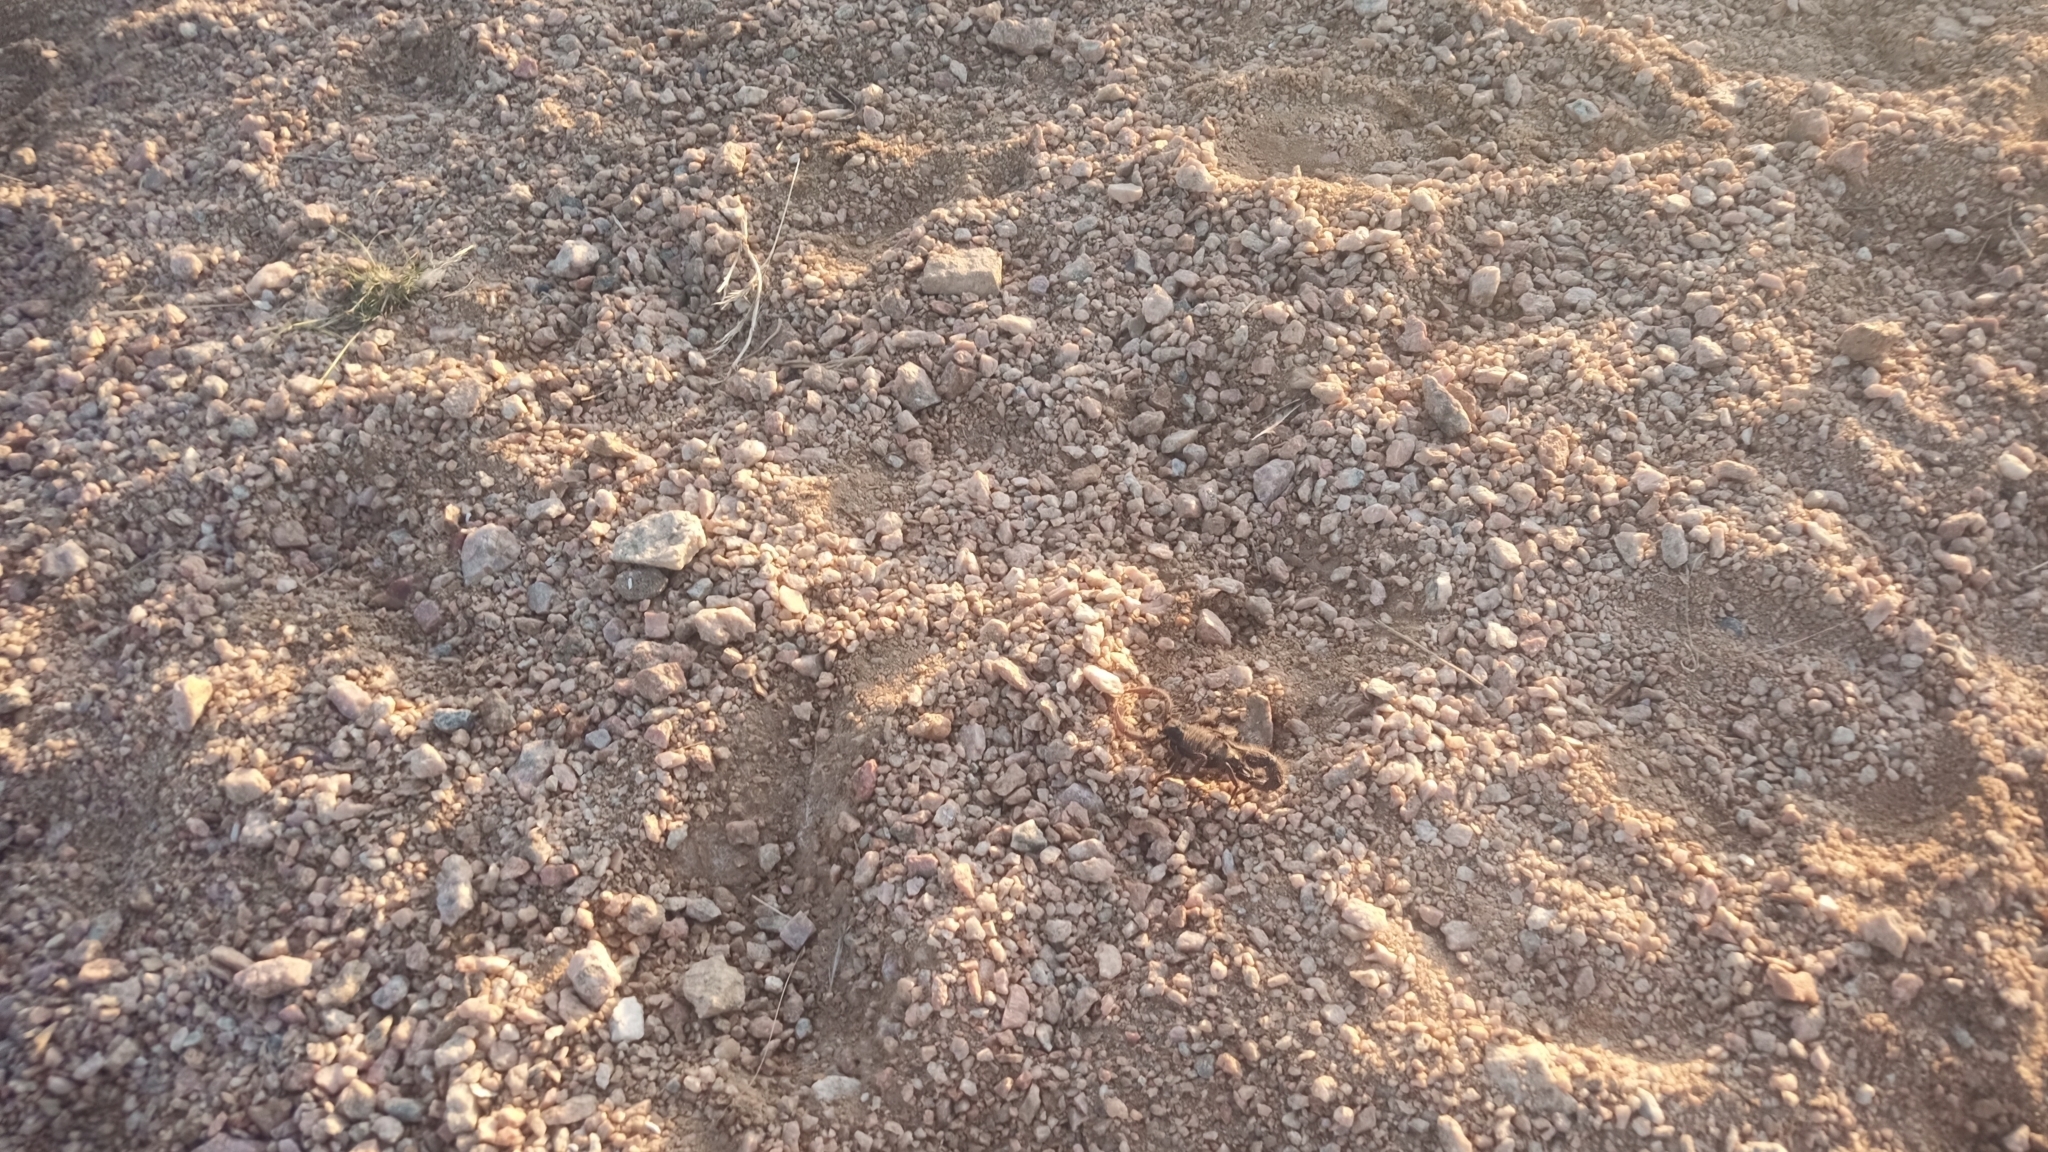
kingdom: Animalia
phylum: Arthropoda
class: Arachnida
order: Scorpiones
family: Buthidae
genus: Parabuthus
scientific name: Parabuthus villosus
